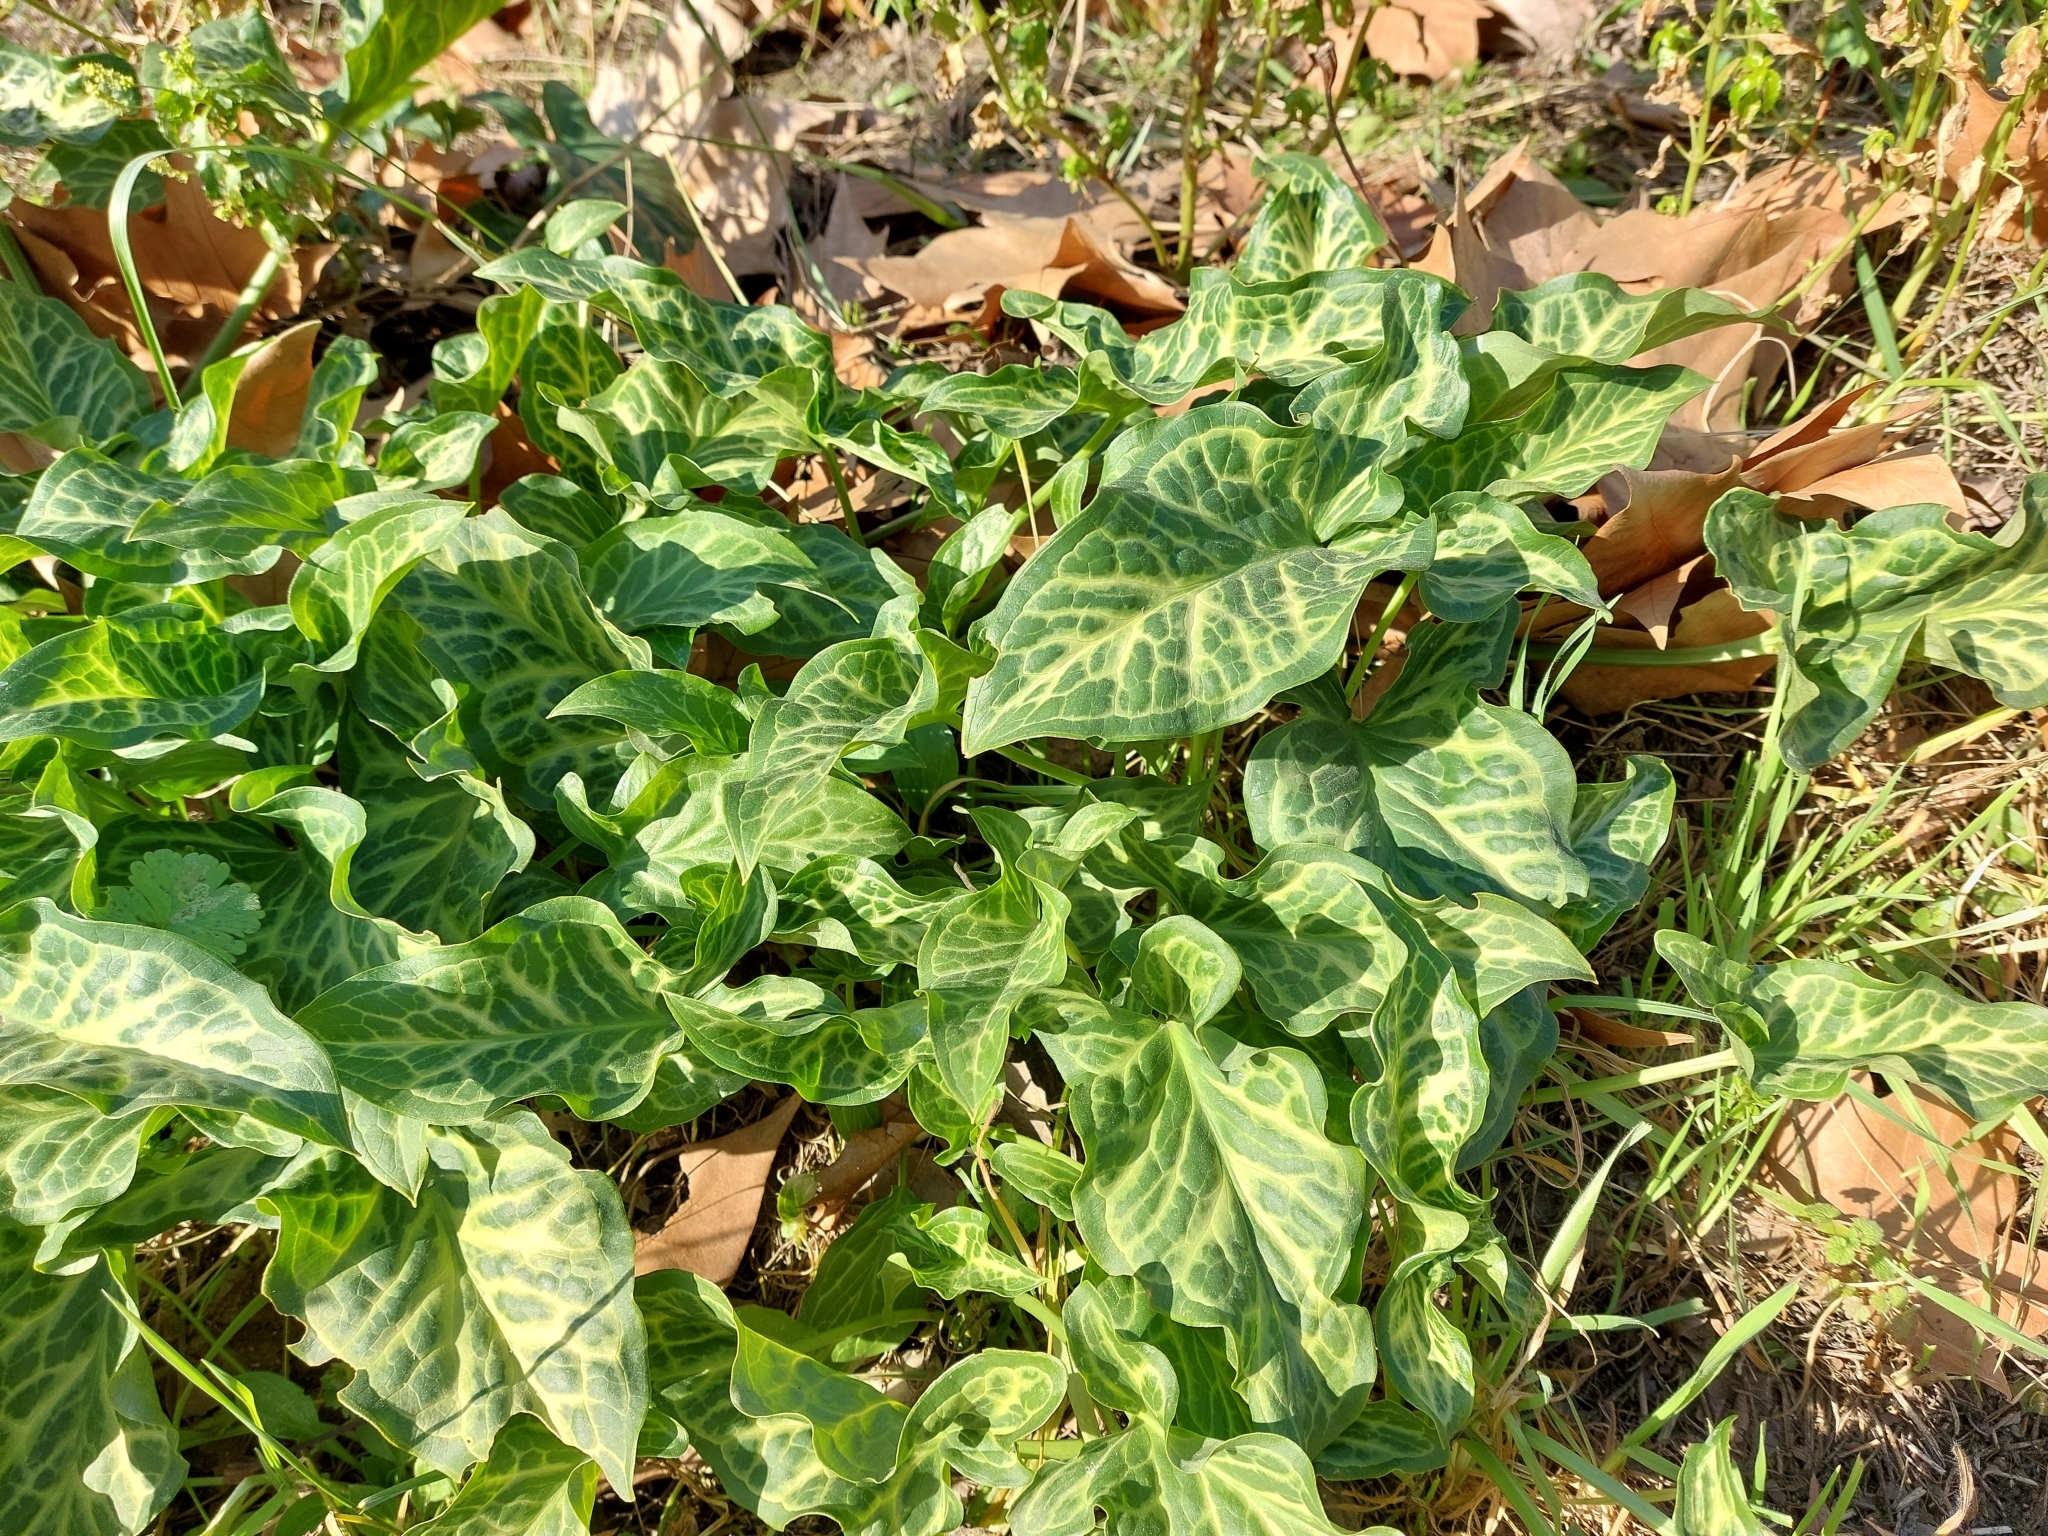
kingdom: Plantae
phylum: Tracheophyta
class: Liliopsida
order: Alismatales
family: Araceae
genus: Arum
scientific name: Arum italicum
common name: Italian lords-and-ladies
